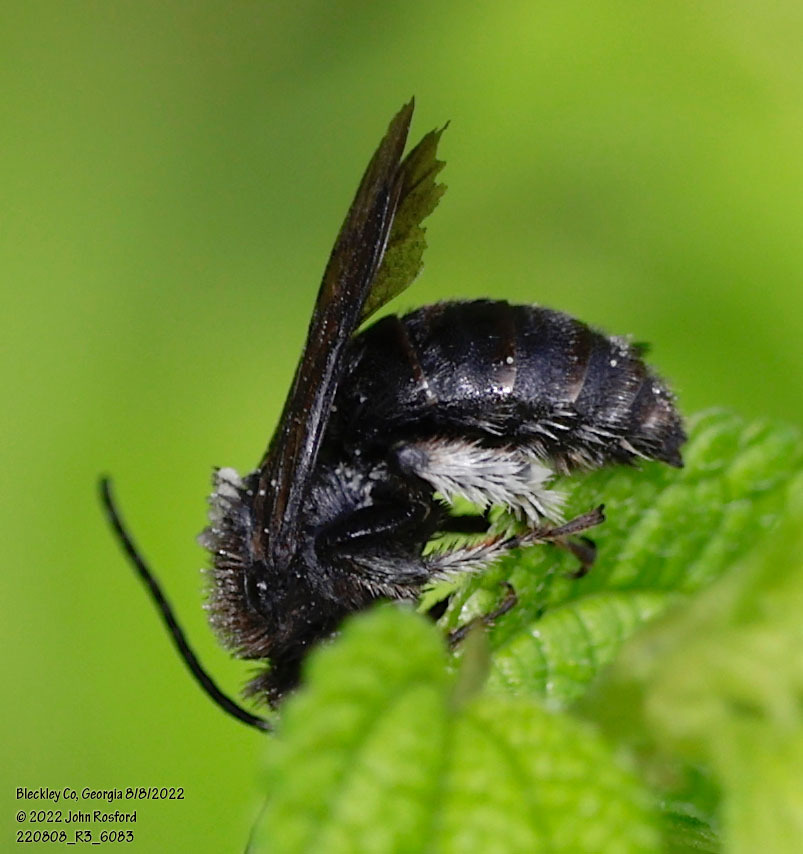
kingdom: Animalia
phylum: Arthropoda
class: Insecta
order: Hymenoptera
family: Apidae
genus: Melissodes
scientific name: Melissodes bimaculatus
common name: Two-spotted long-horned bee
